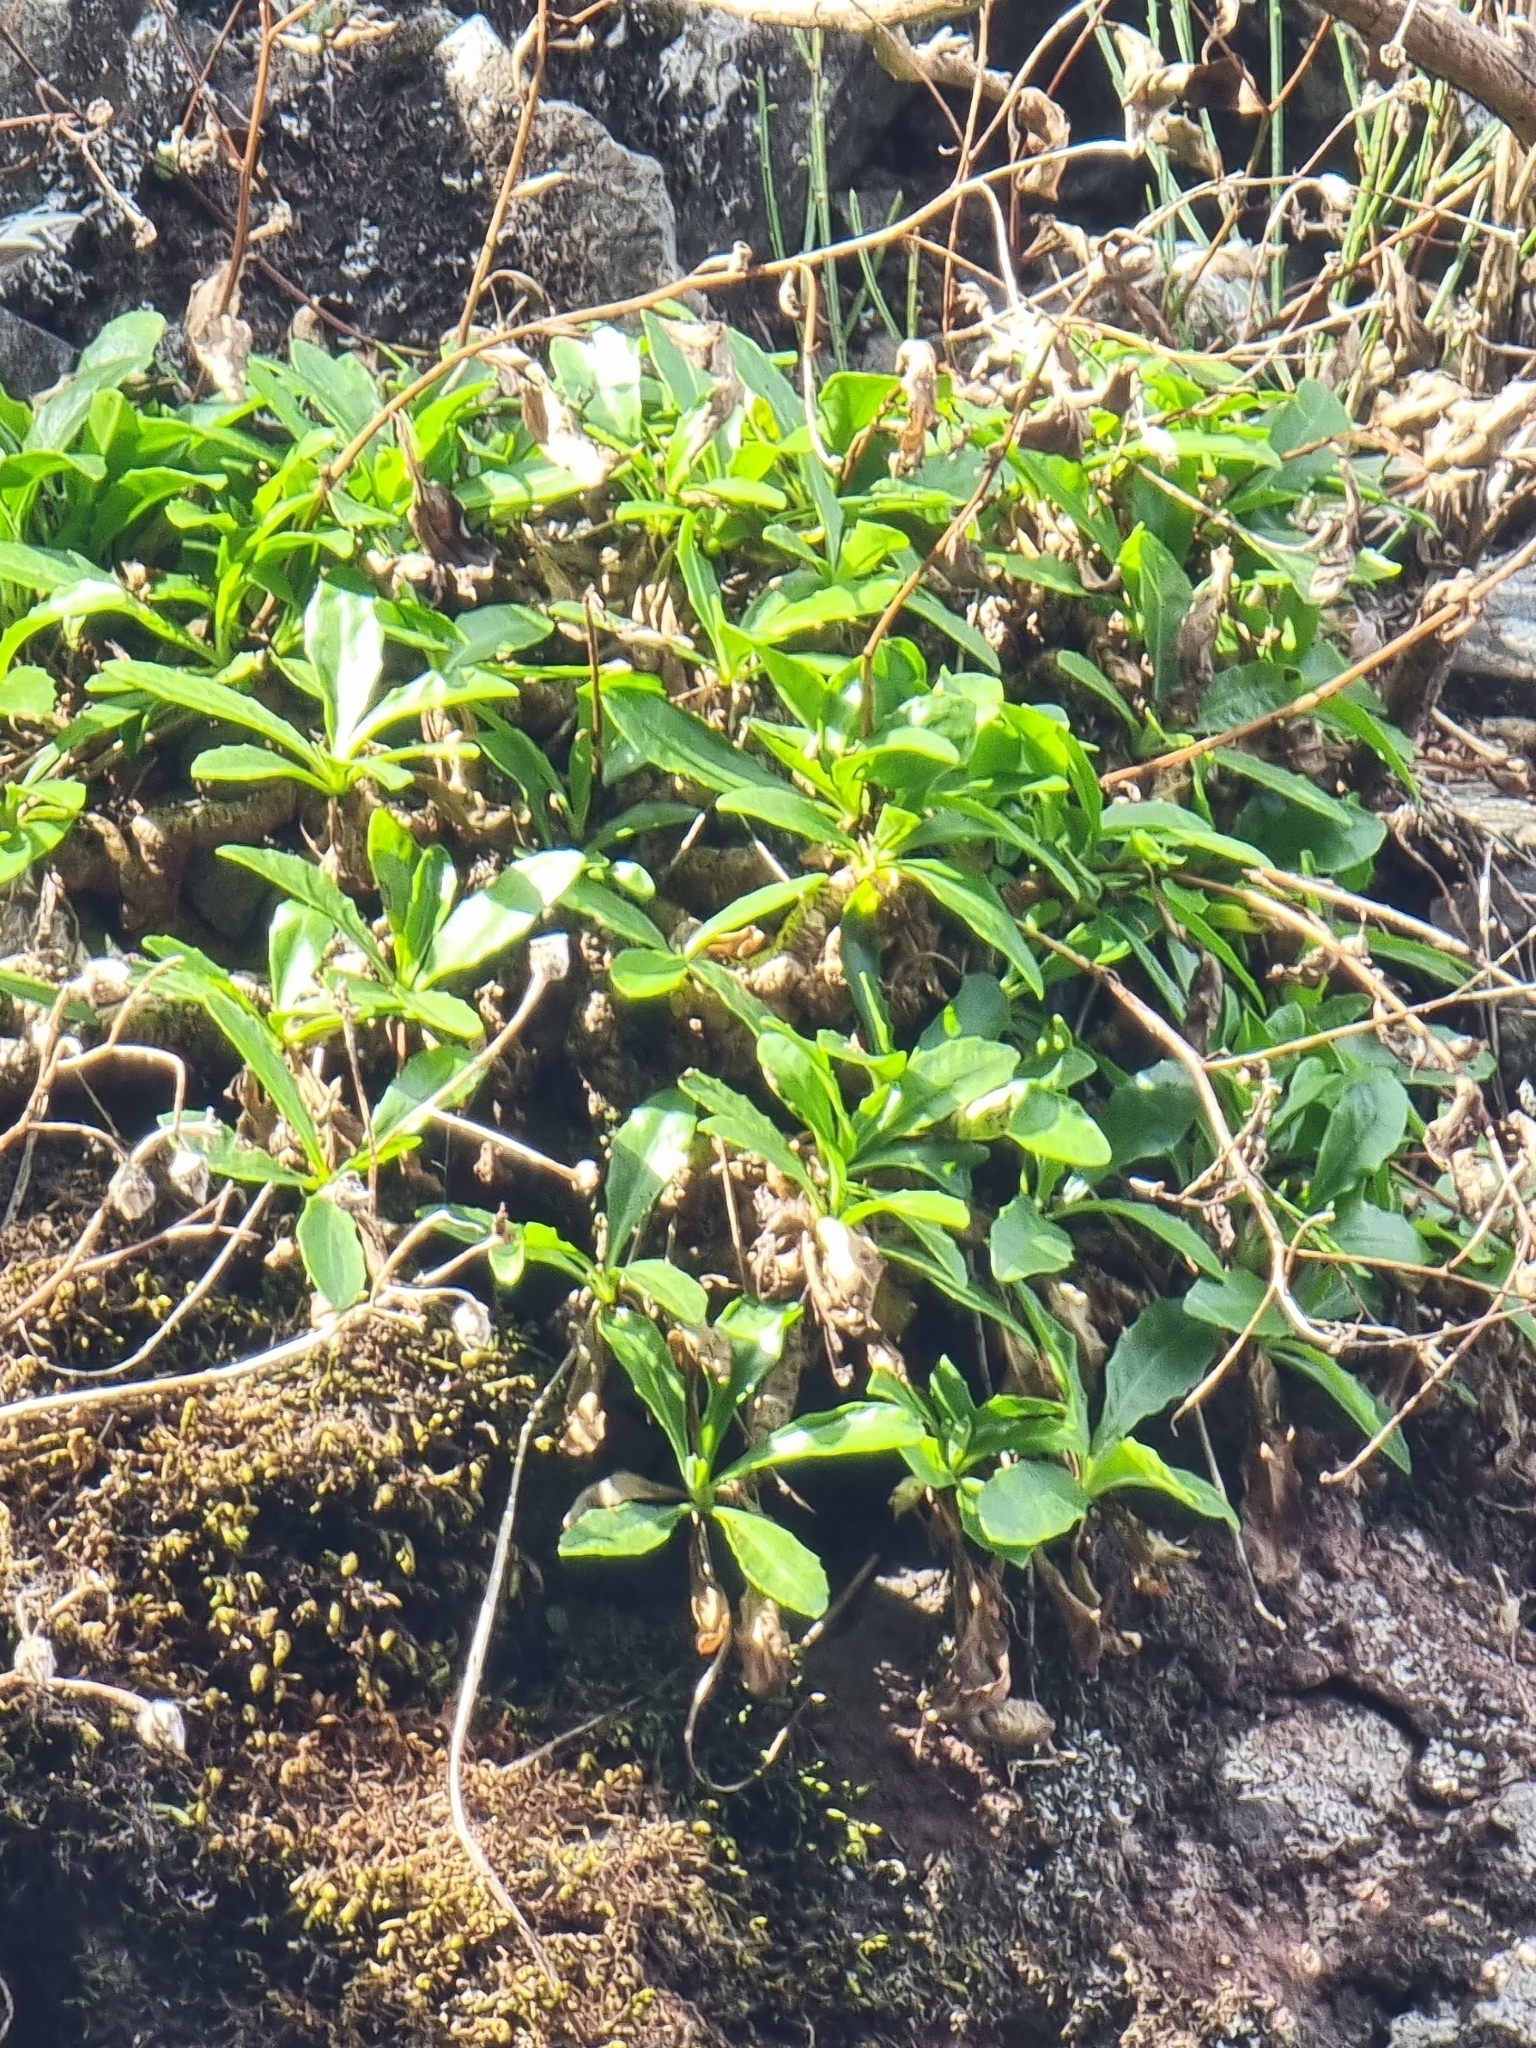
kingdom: Plantae
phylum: Tracheophyta
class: Magnoliopsida
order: Asterales
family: Asteraceae
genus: Tolpis
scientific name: Tolpis macrorhiza
